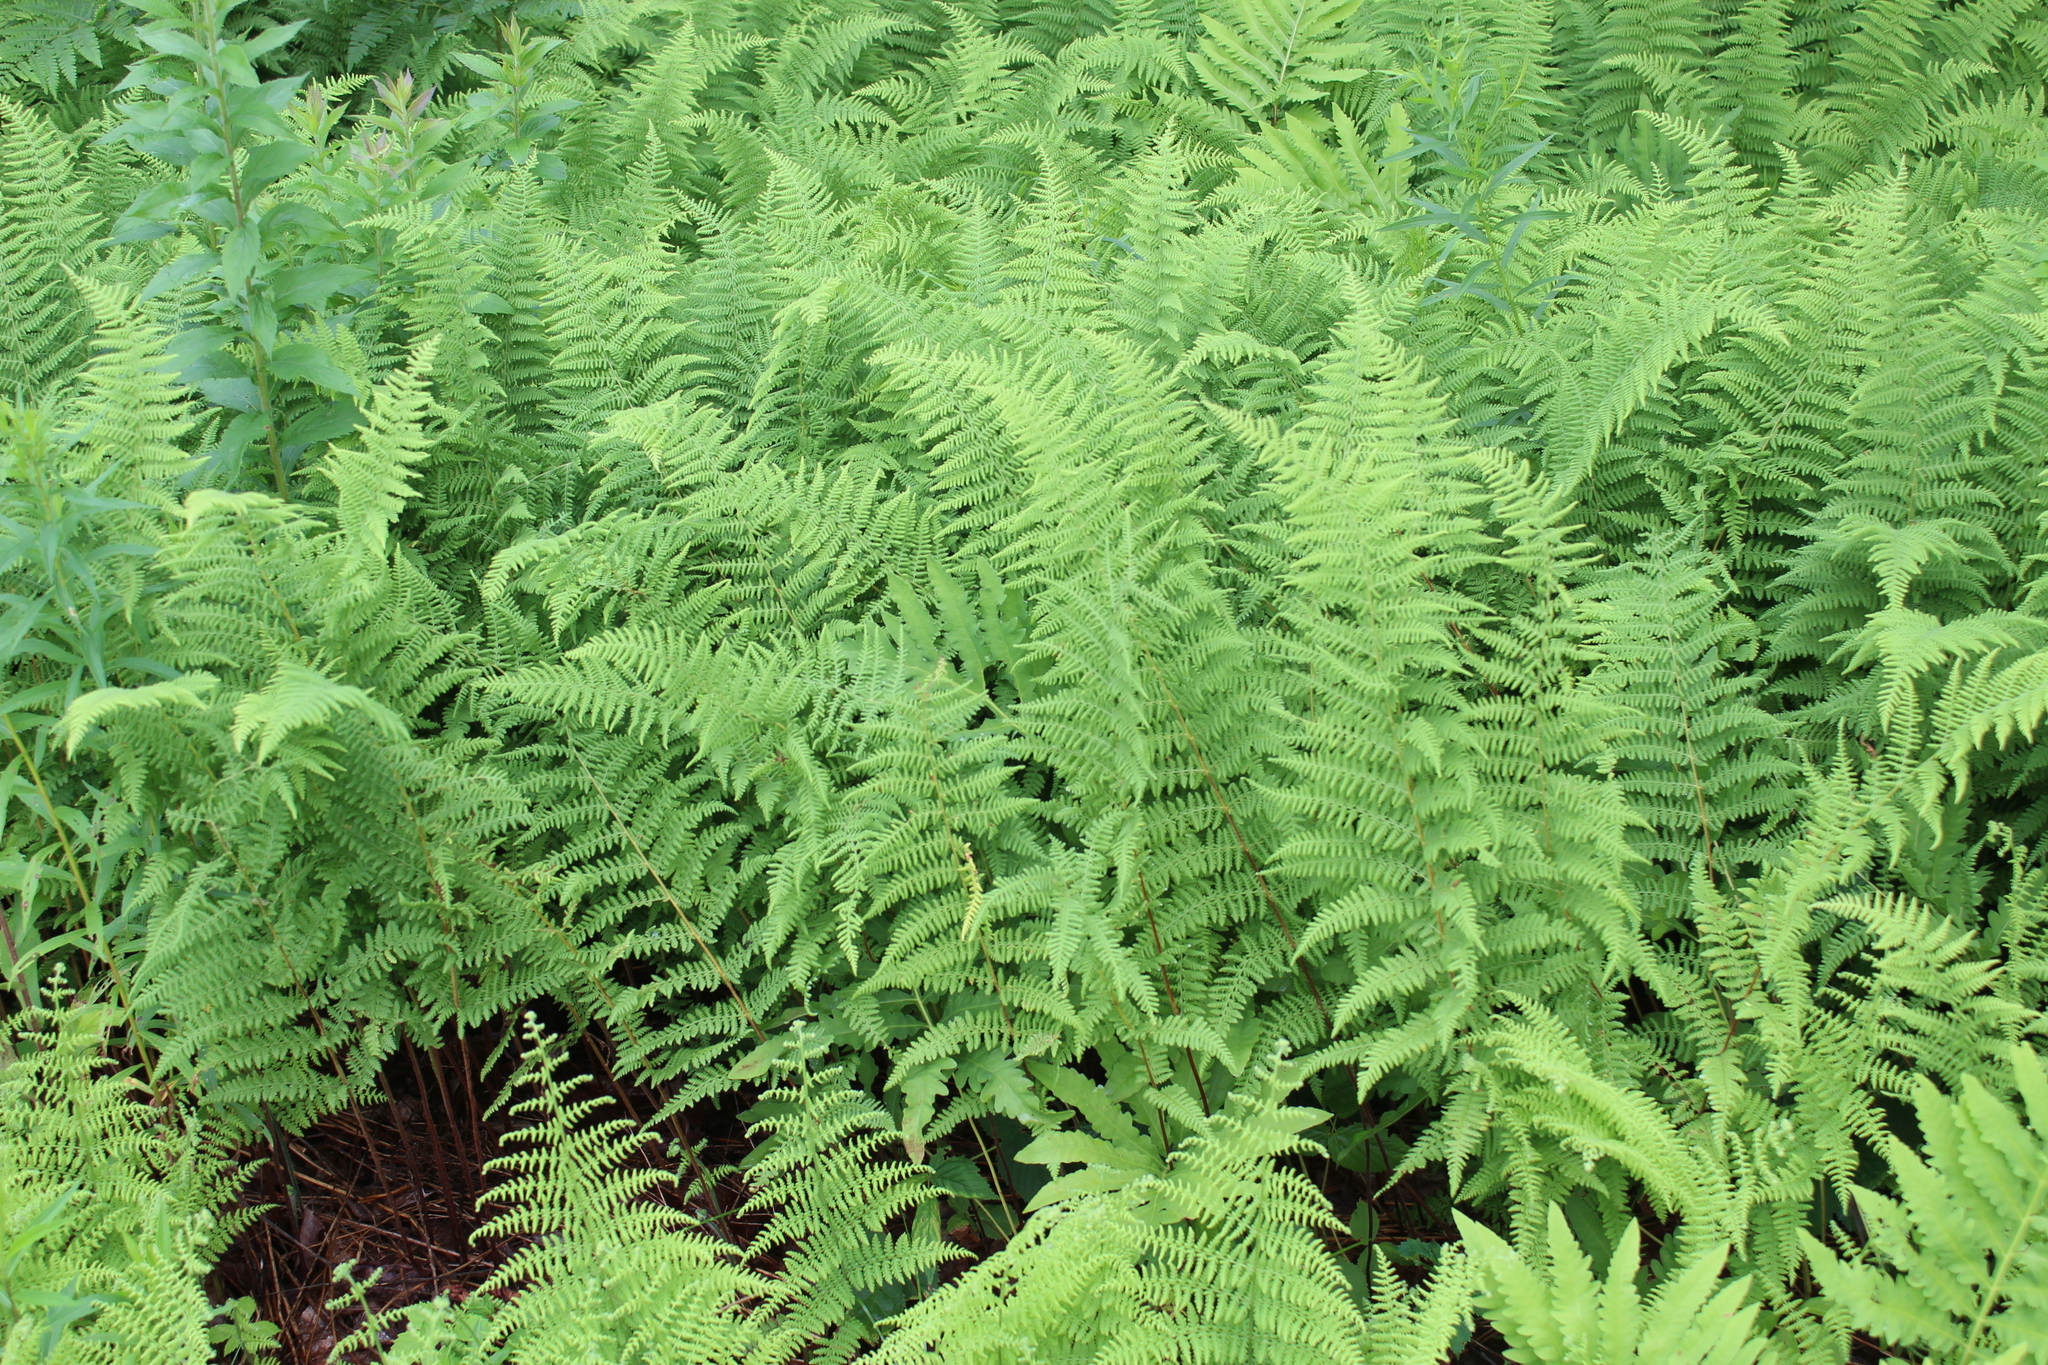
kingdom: Plantae
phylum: Tracheophyta
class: Polypodiopsida
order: Polypodiales
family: Dennstaedtiaceae
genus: Sitobolium
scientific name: Sitobolium punctilobum
